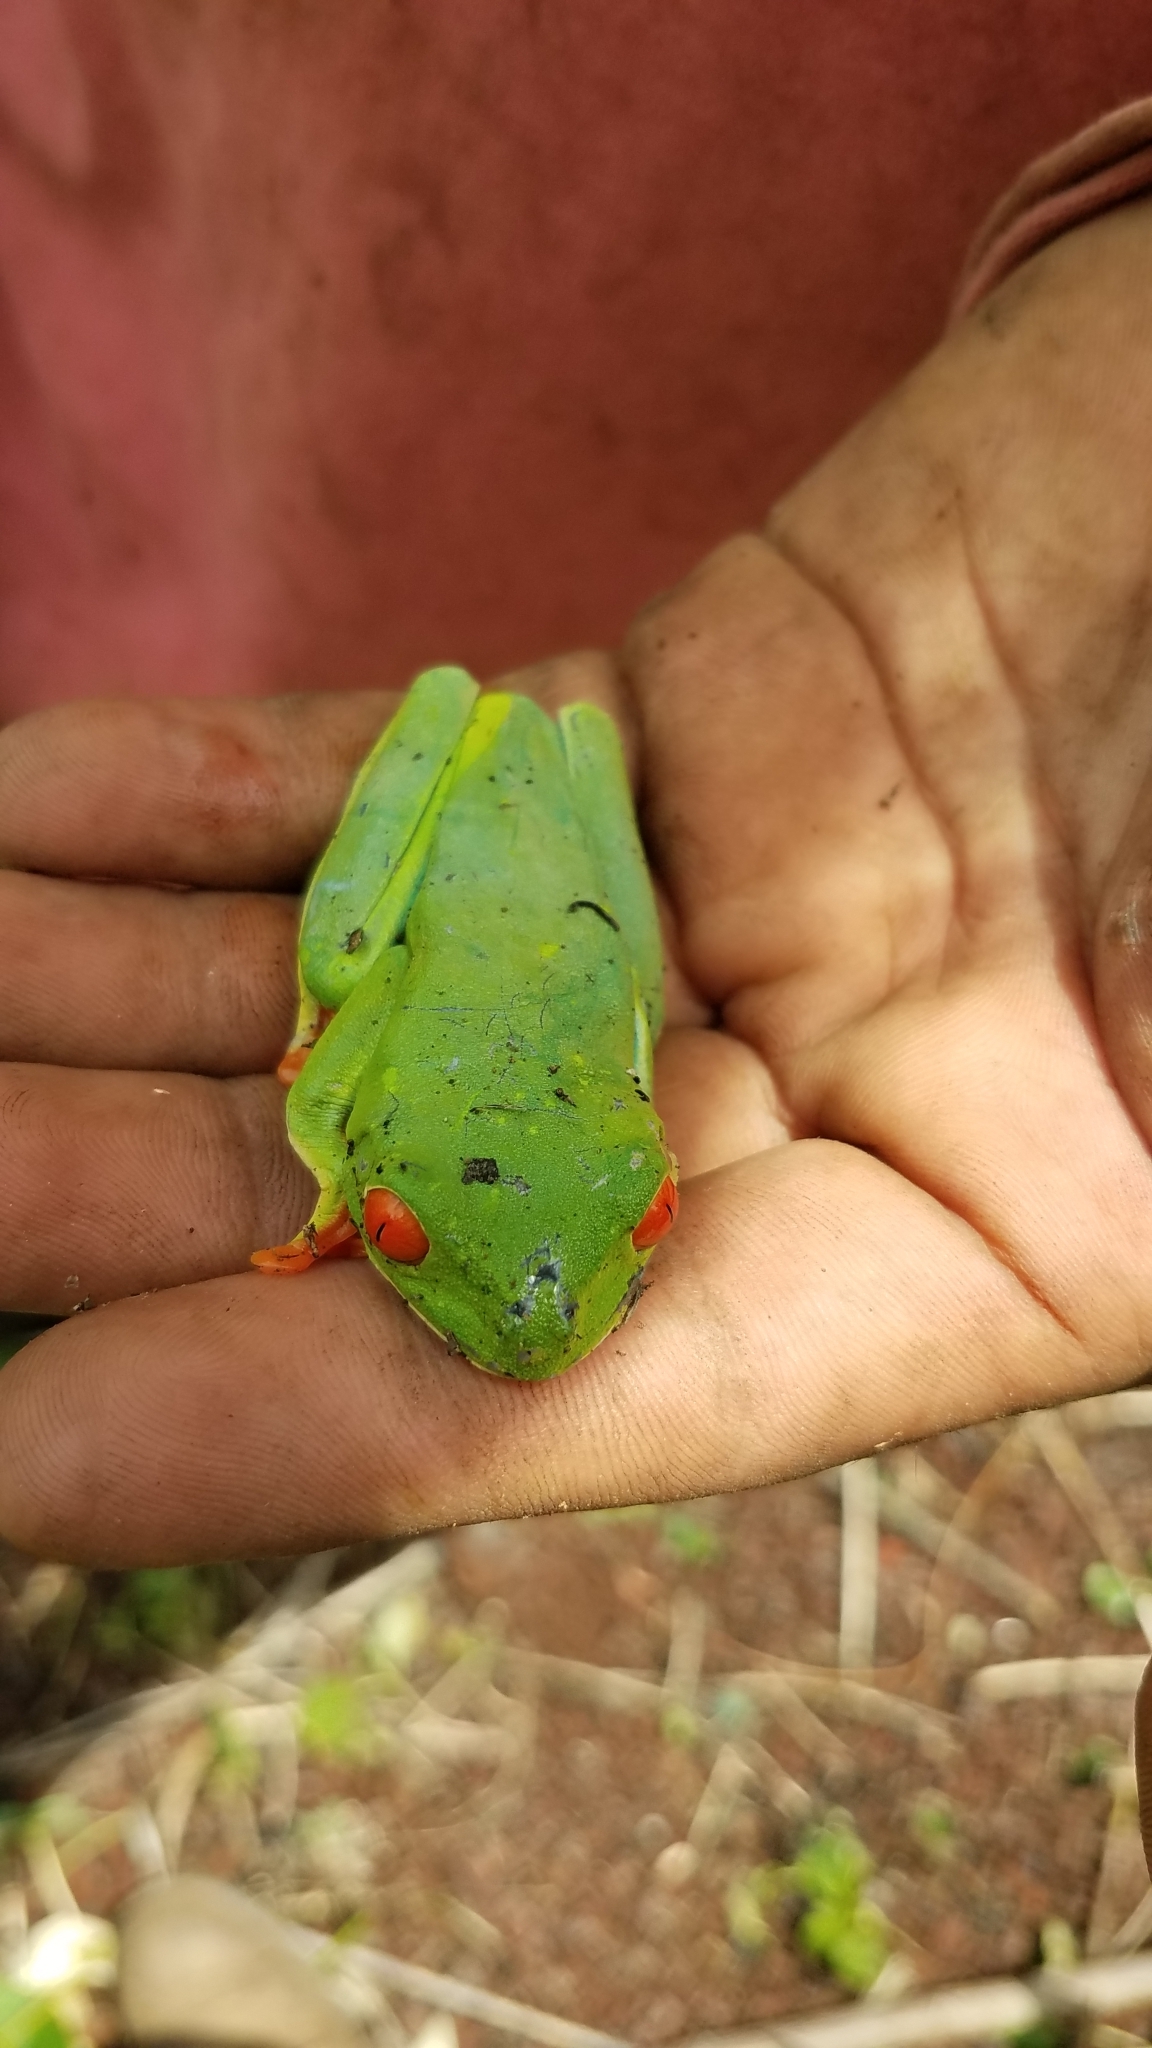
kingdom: Animalia
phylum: Chordata
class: Amphibia
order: Anura
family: Phyllomedusidae
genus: Agalychnis
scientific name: Agalychnis callidryas
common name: Red-eyed treefrog
